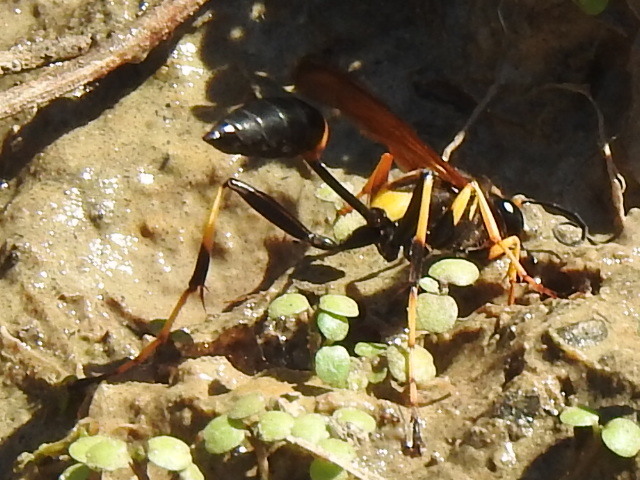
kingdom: Animalia
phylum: Arthropoda
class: Insecta
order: Hymenoptera
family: Sphecidae
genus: Sceliphron
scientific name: Sceliphron caementarium
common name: Mud dauber
